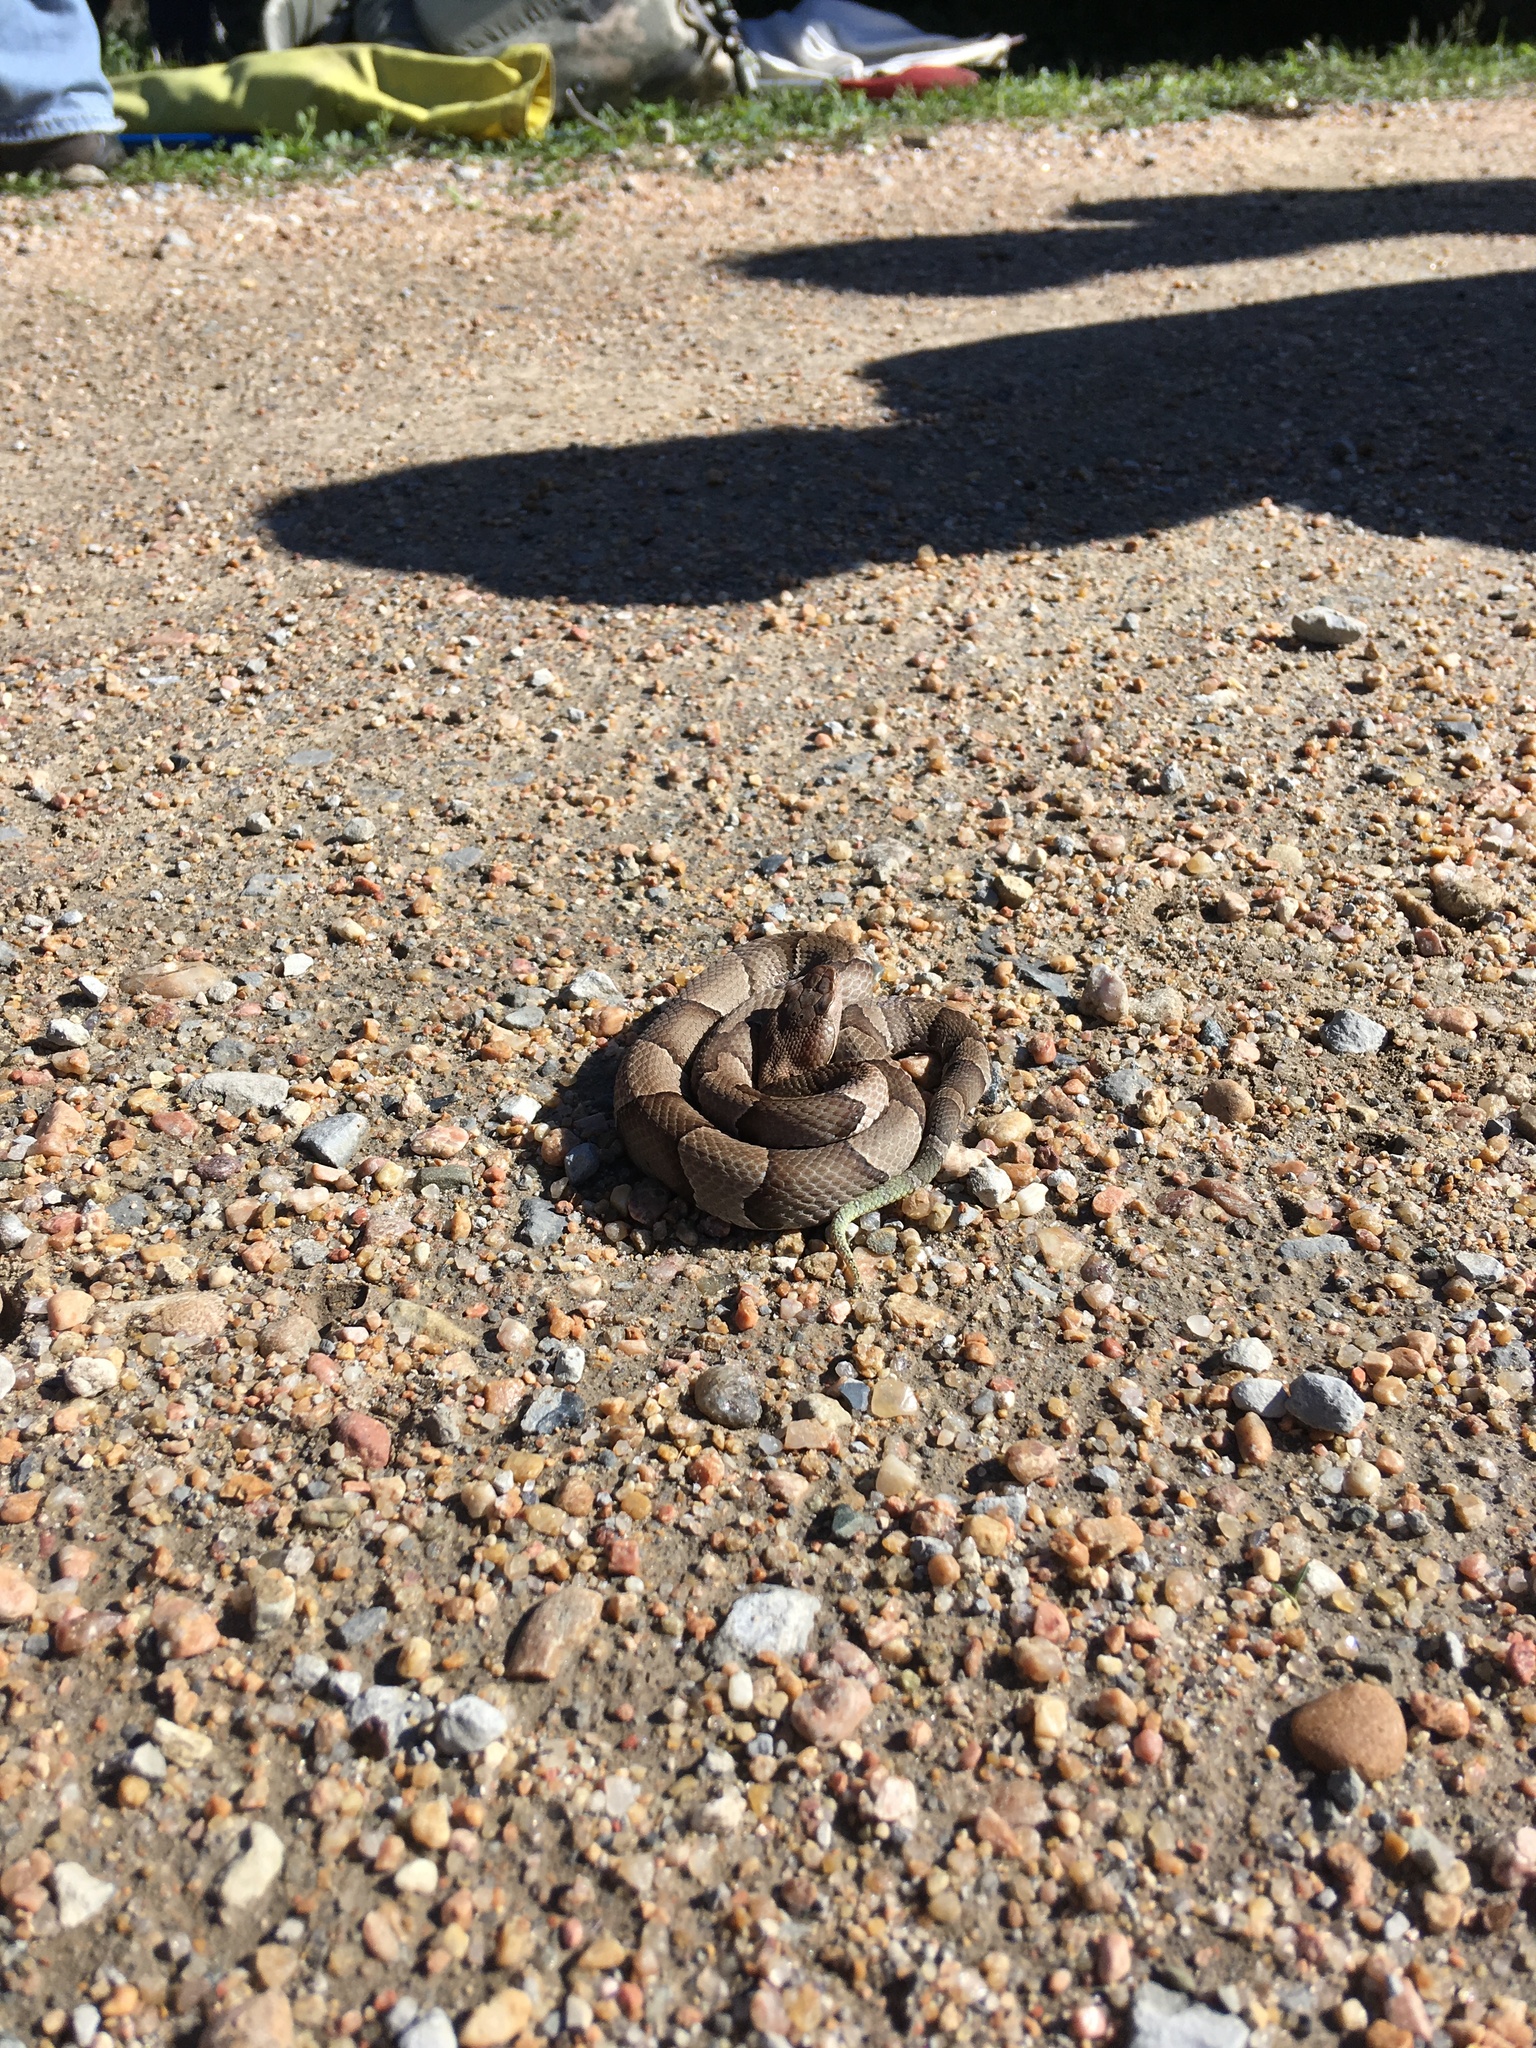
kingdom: Animalia
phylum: Chordata
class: Squamata
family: Viperidae
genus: Agkistrodon
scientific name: Agkistrodon contortrix
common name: Northern copperhead
